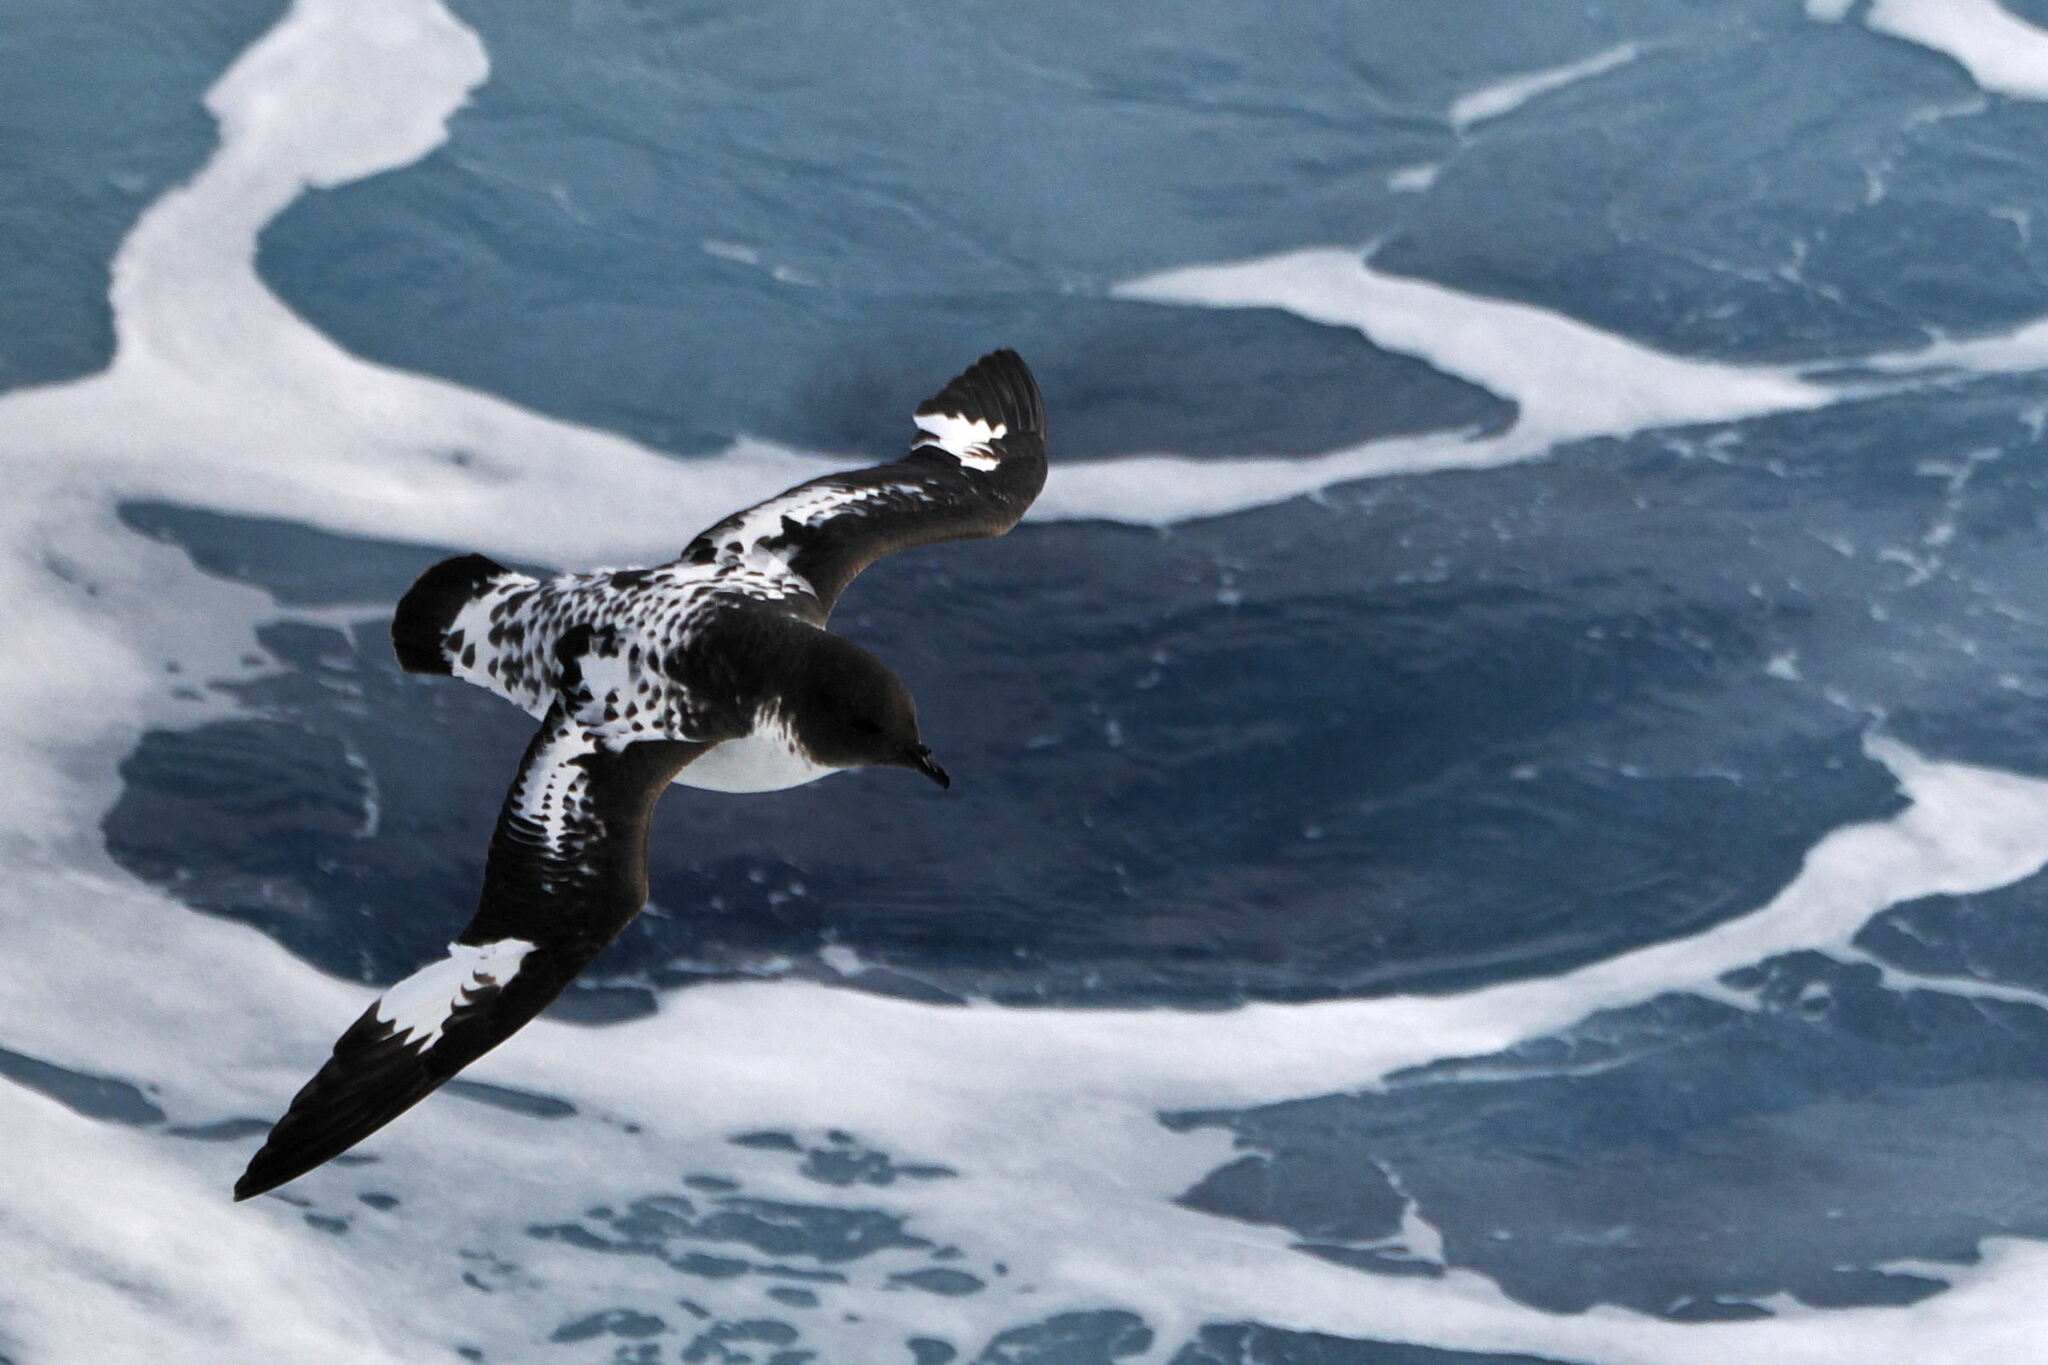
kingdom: Animalia
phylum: Chordata
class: Aves
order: Procellariiformes
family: Procellariidae
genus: Daption
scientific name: Daption capense
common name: Cape petrel
